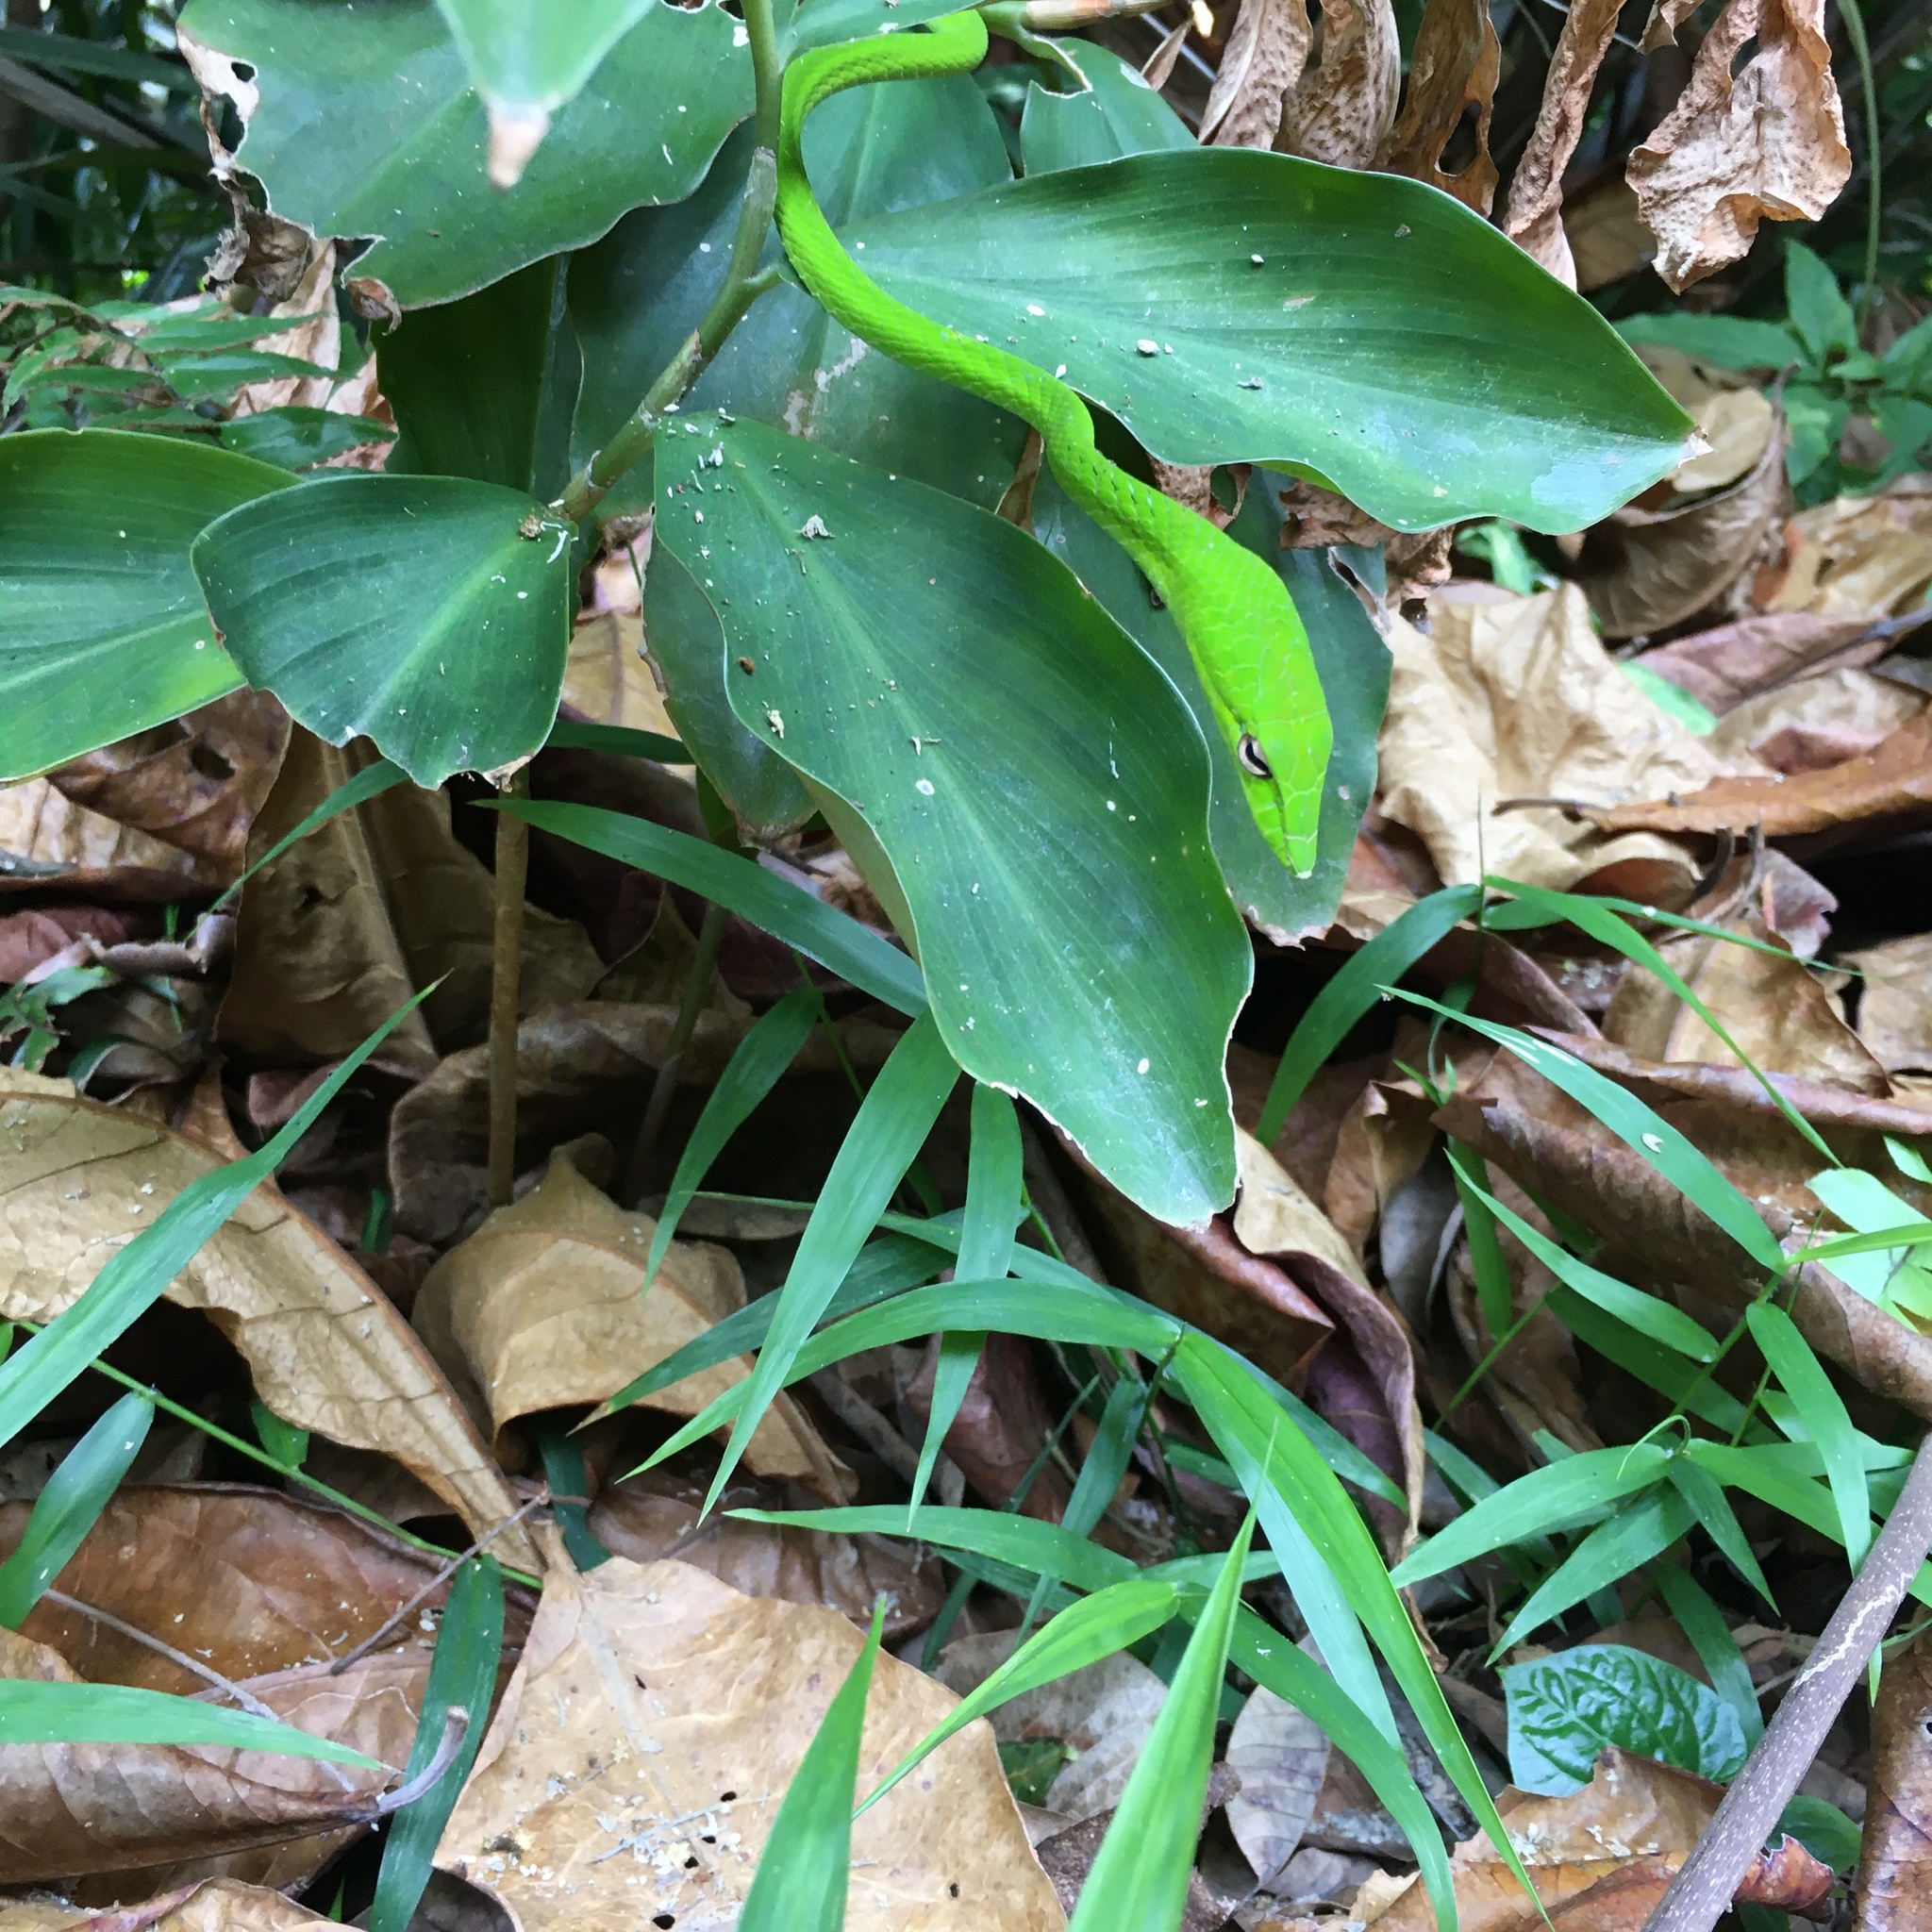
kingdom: Animalia
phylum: Chordata
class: Squamata
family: Colubridae
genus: Ahaetulla
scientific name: Ahaetulla prasina
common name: Oriental whip snake
